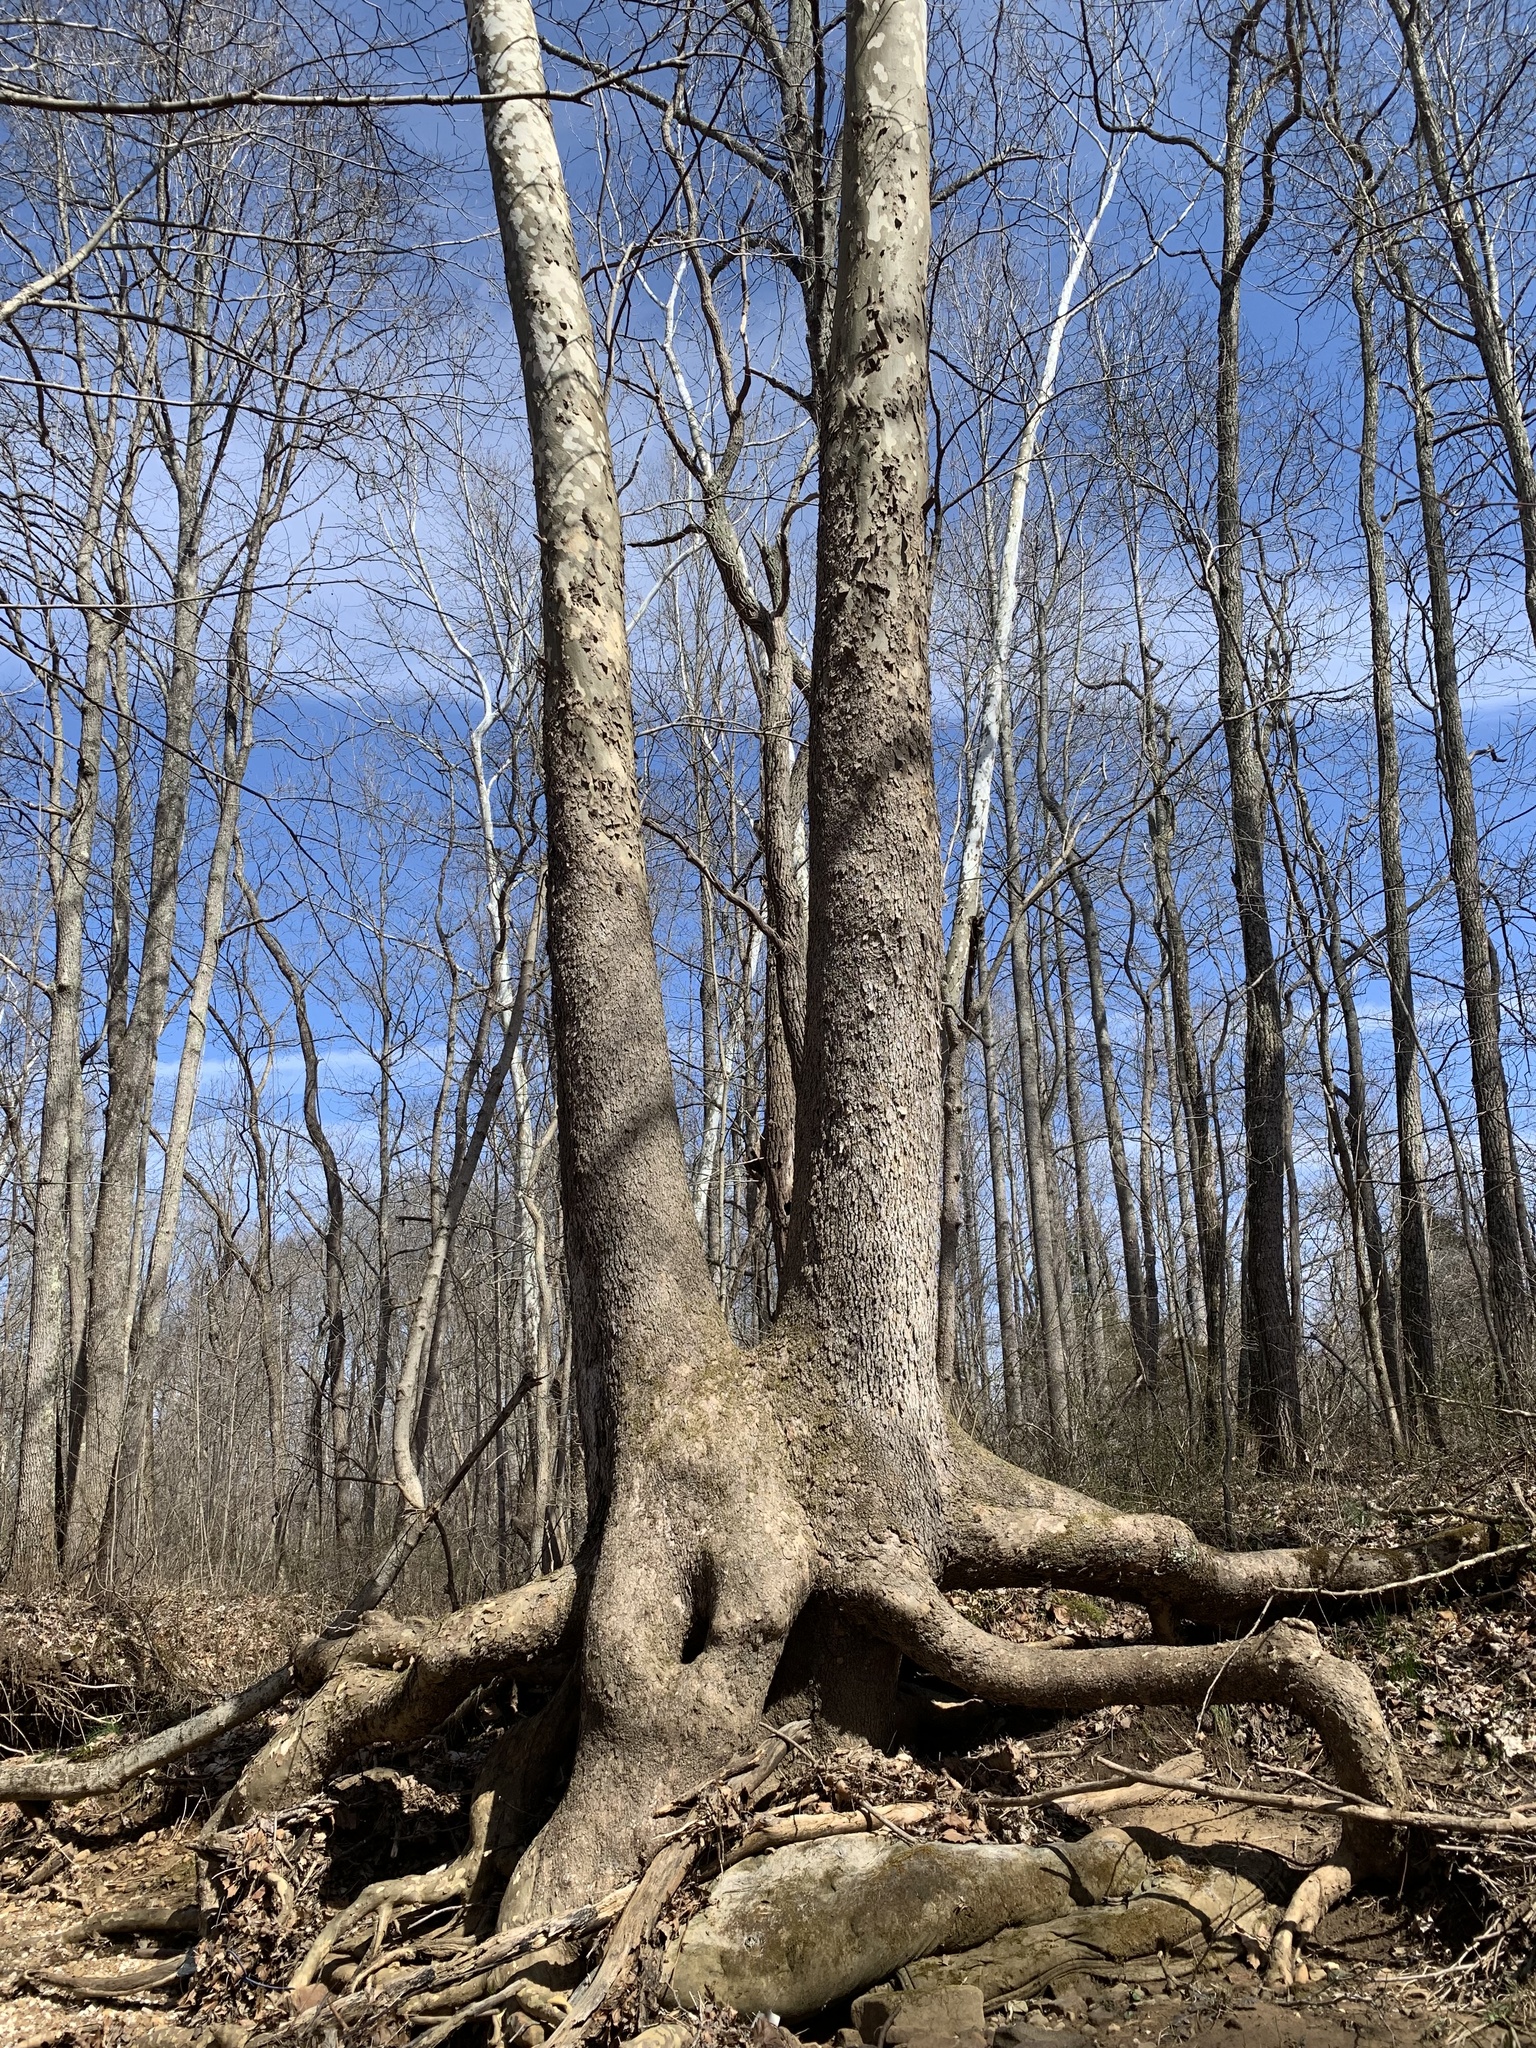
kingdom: Plantae
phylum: Tracheophyta
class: Magnoliopsida
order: Proteales
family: Platanaceae
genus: Platanus
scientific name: Platanus occidentalis
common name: American sycamore
